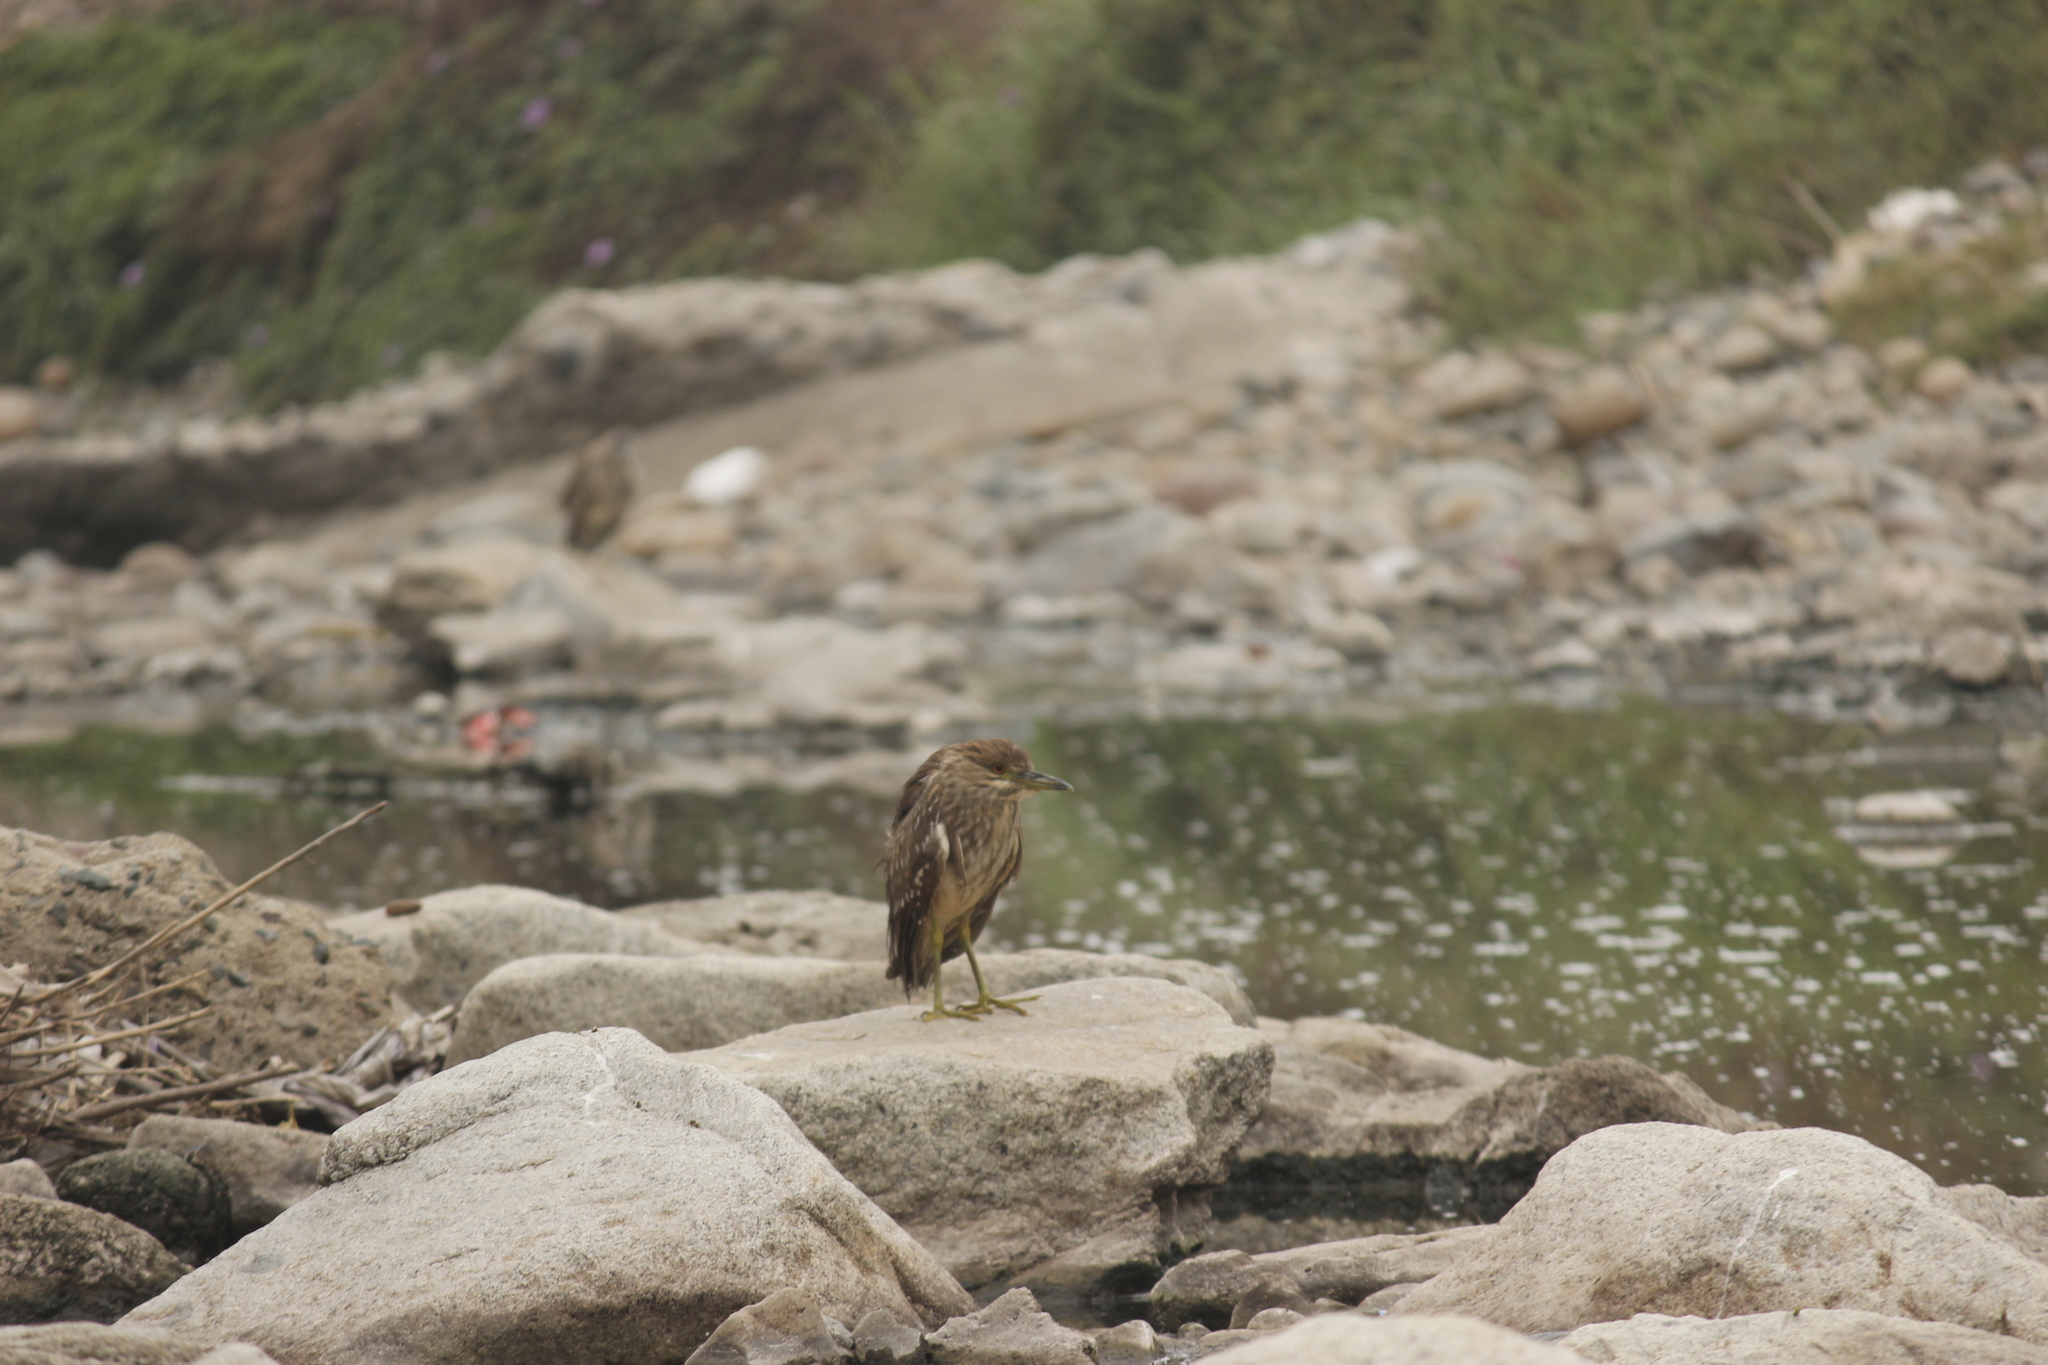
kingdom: Animalia
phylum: Chordata
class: Aves
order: Pelecaniformes
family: Ardeidae
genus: Nycticorax
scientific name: Nycticorax nycticorax
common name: Black-crowned night heron
